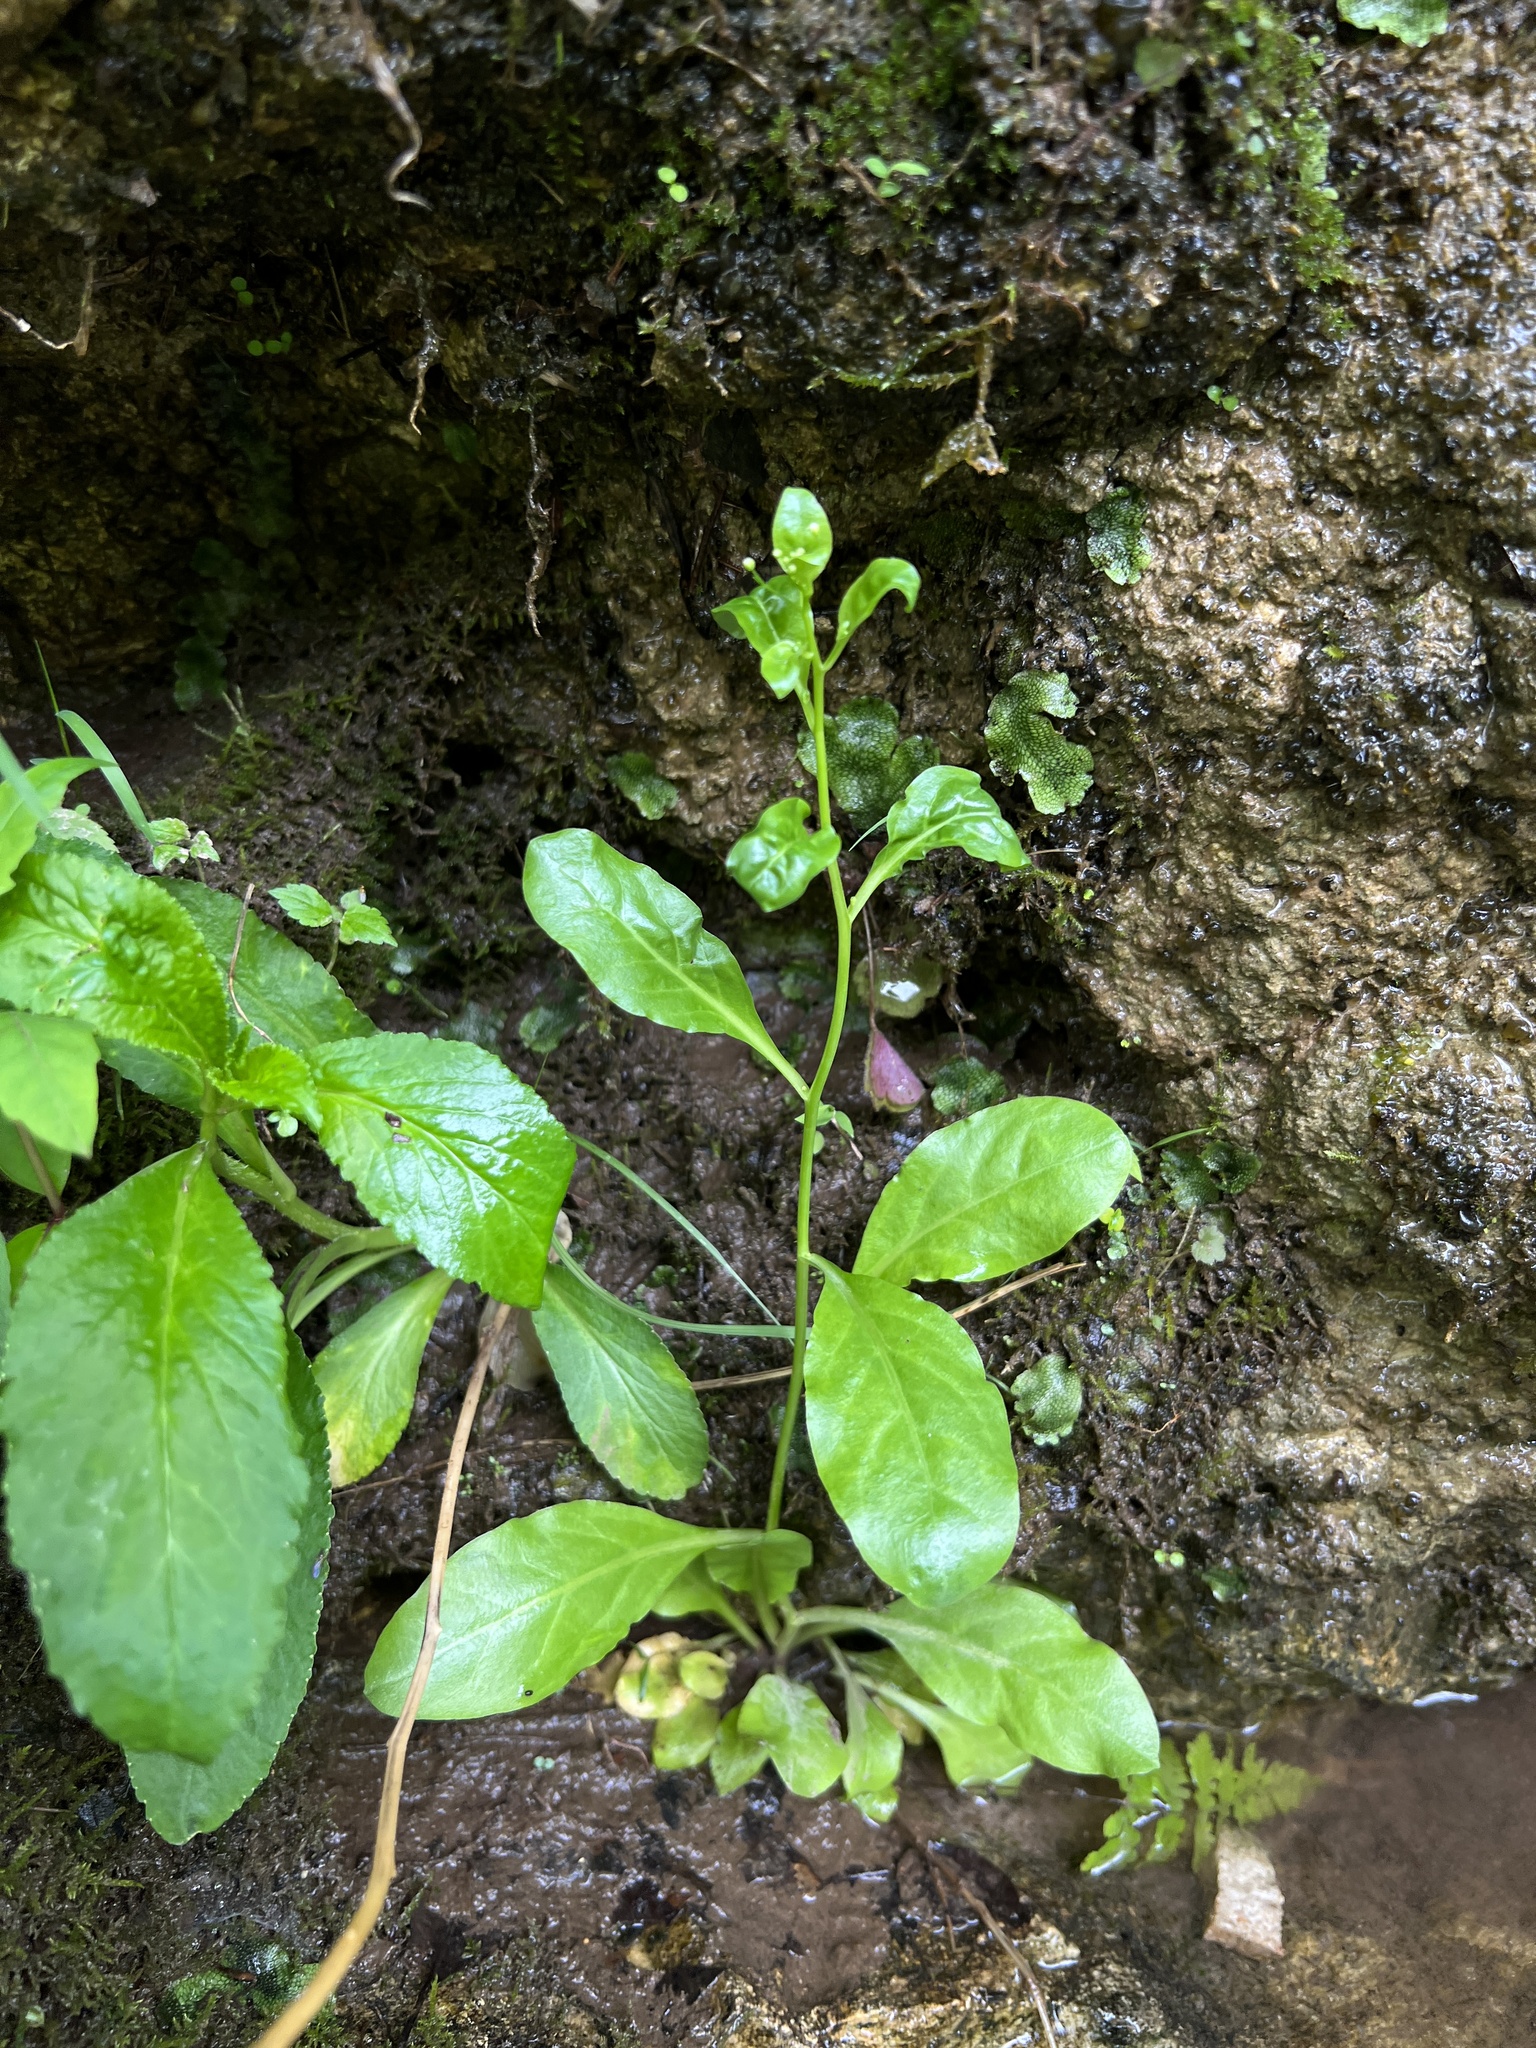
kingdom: Plantae
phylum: Tracheophyta
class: Magnoliopsida
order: Ericales
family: Primulaceae
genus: Samolus
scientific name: Samolus parviflorus
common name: False water pimpernel
